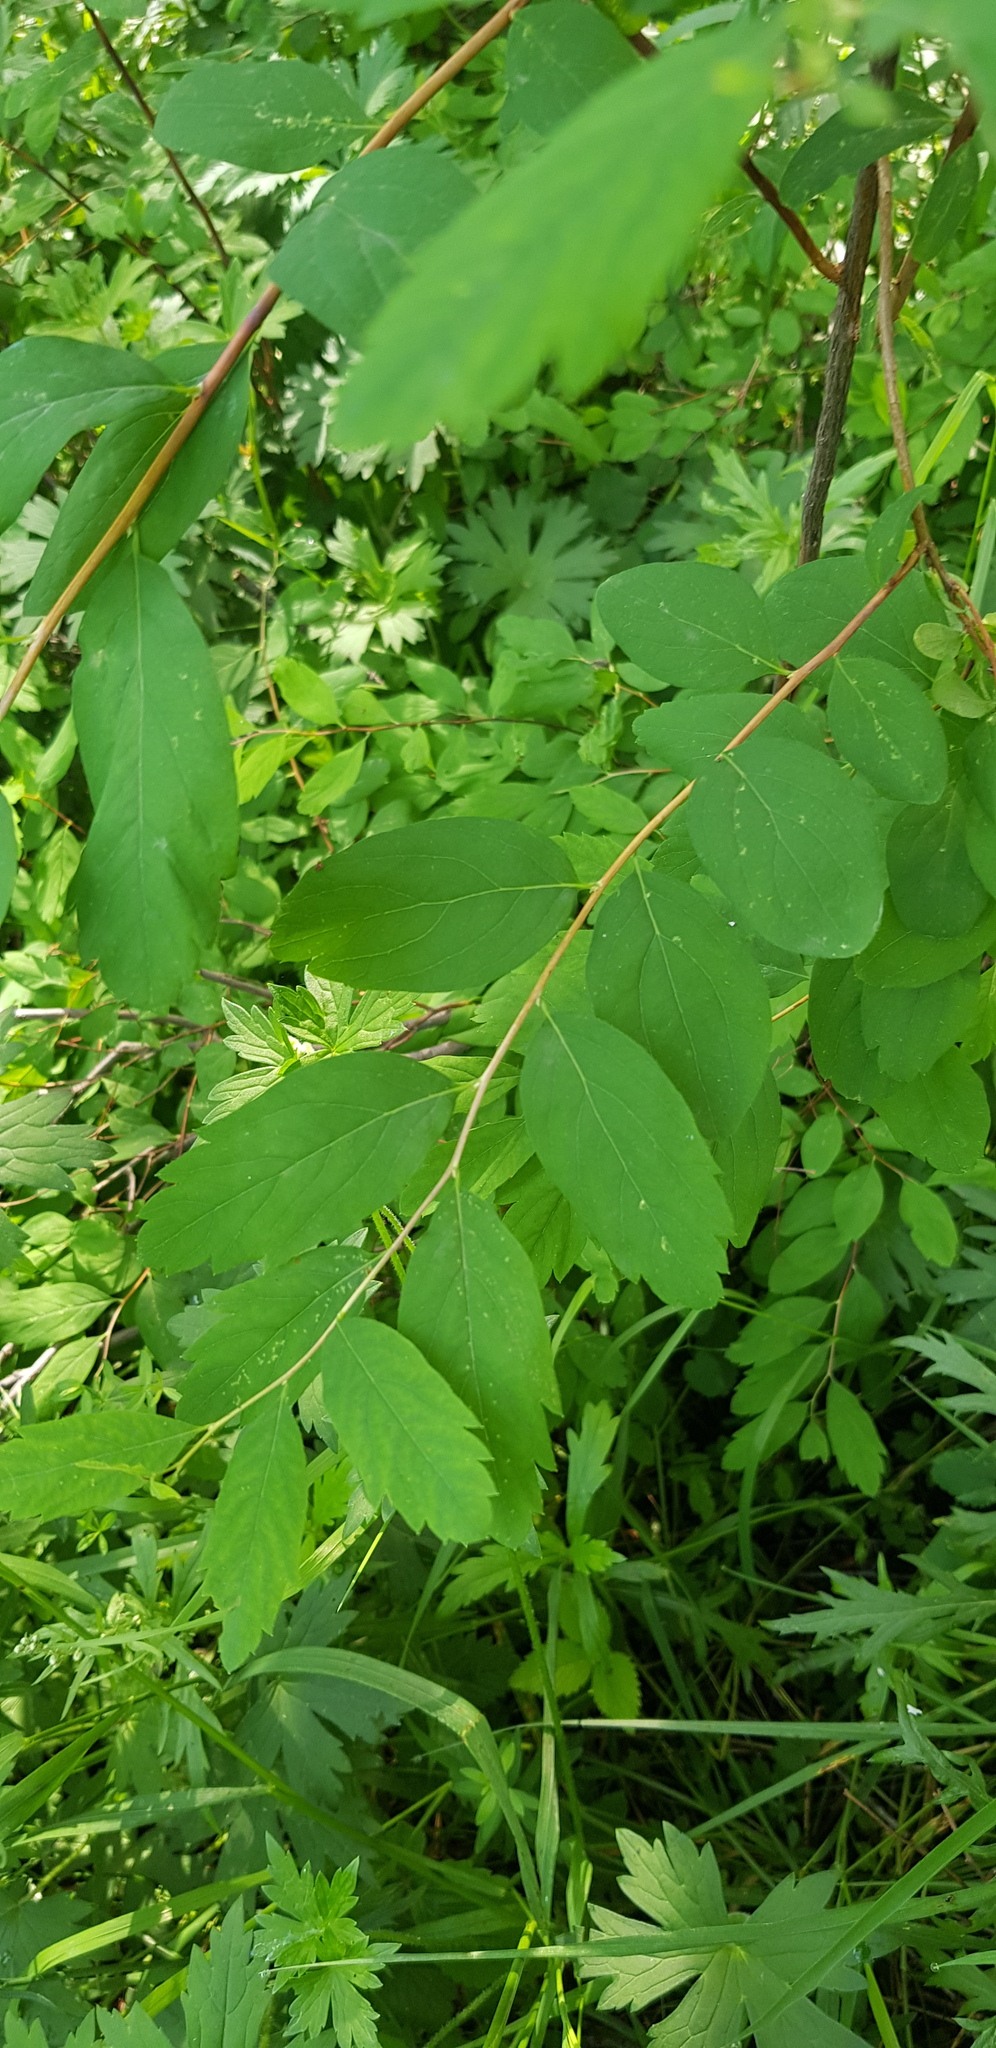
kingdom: Plantae
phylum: Tracheophyta
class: Magnoliopsida
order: Rosales
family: Rosaceae
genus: Spiraea
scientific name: Spiraea media
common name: Russian spiraea
